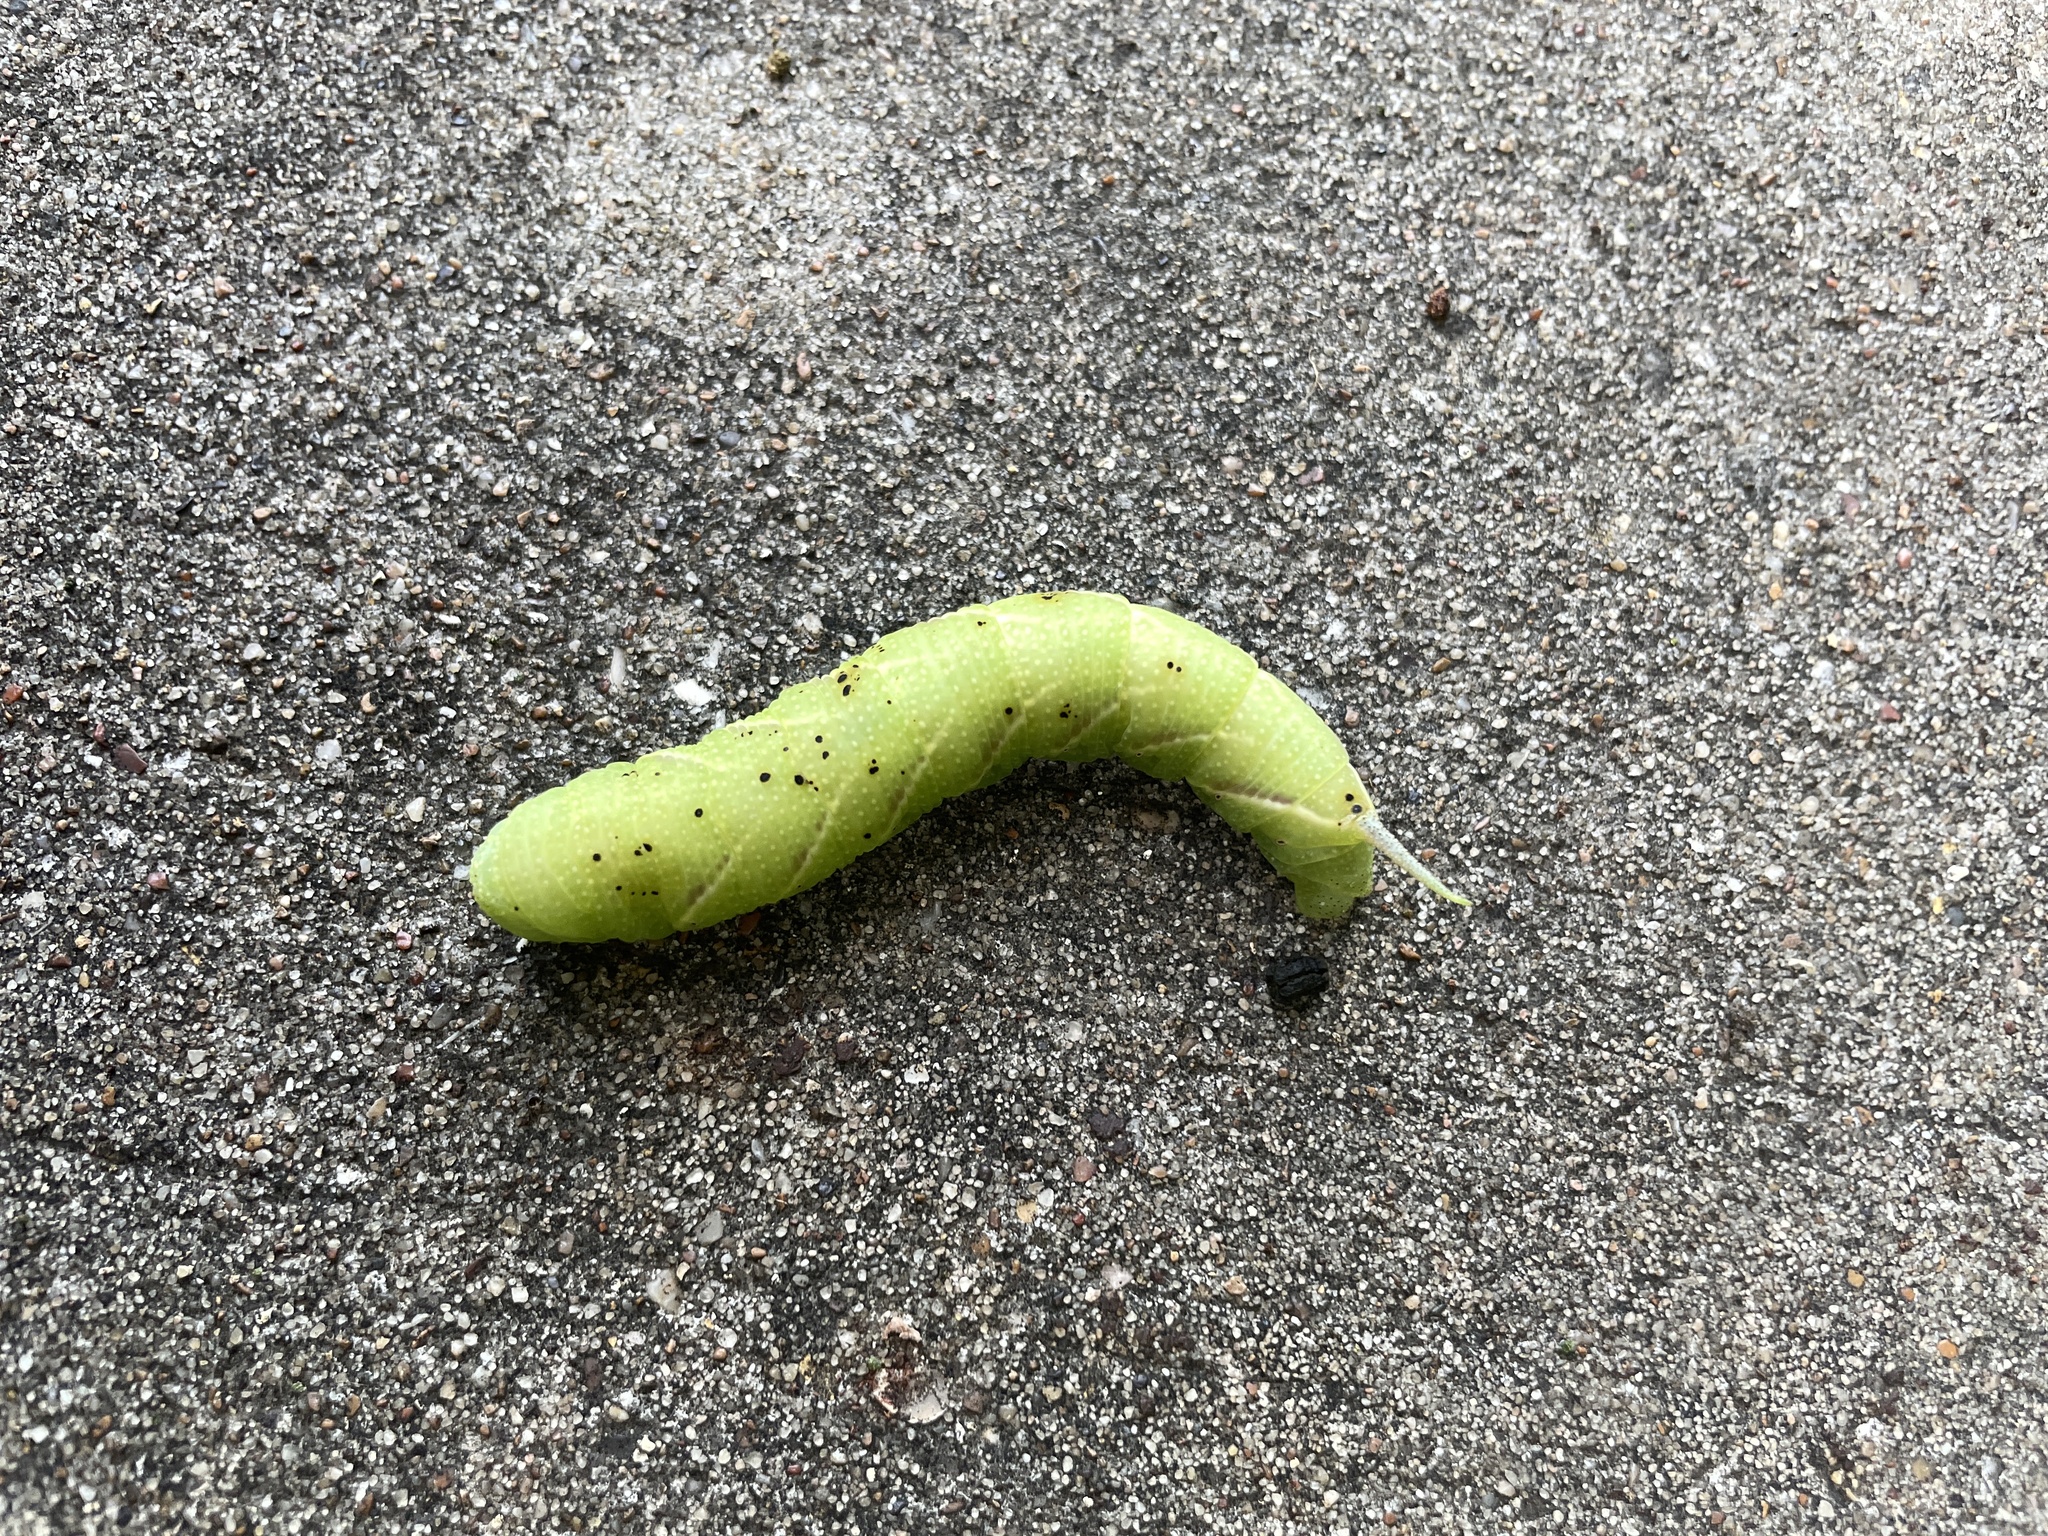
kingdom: Animalia
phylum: Arthropoda
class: Insecta
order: Lepidoptera
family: Sphingidae
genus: Ceratomia
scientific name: Ceratomia hageni
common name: Hagen's sphinx
